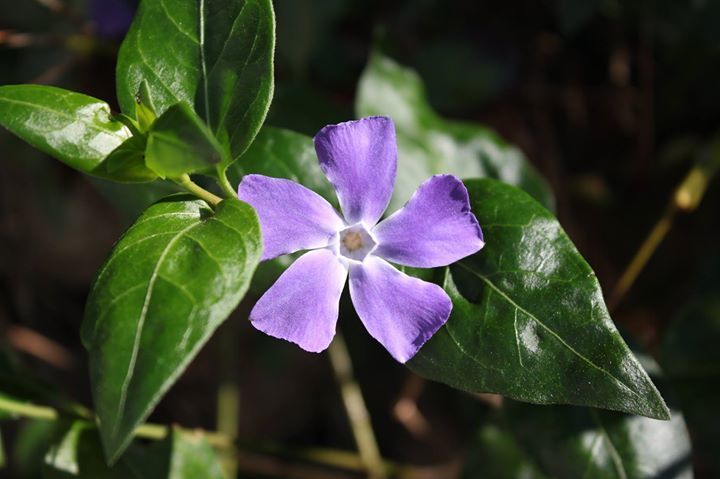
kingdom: Plantae
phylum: Tracheophyta
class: Magnoliopsida
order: Gentianales
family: Apocynaceae
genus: Vinca
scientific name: Vinca major
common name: Greater periwinkle
